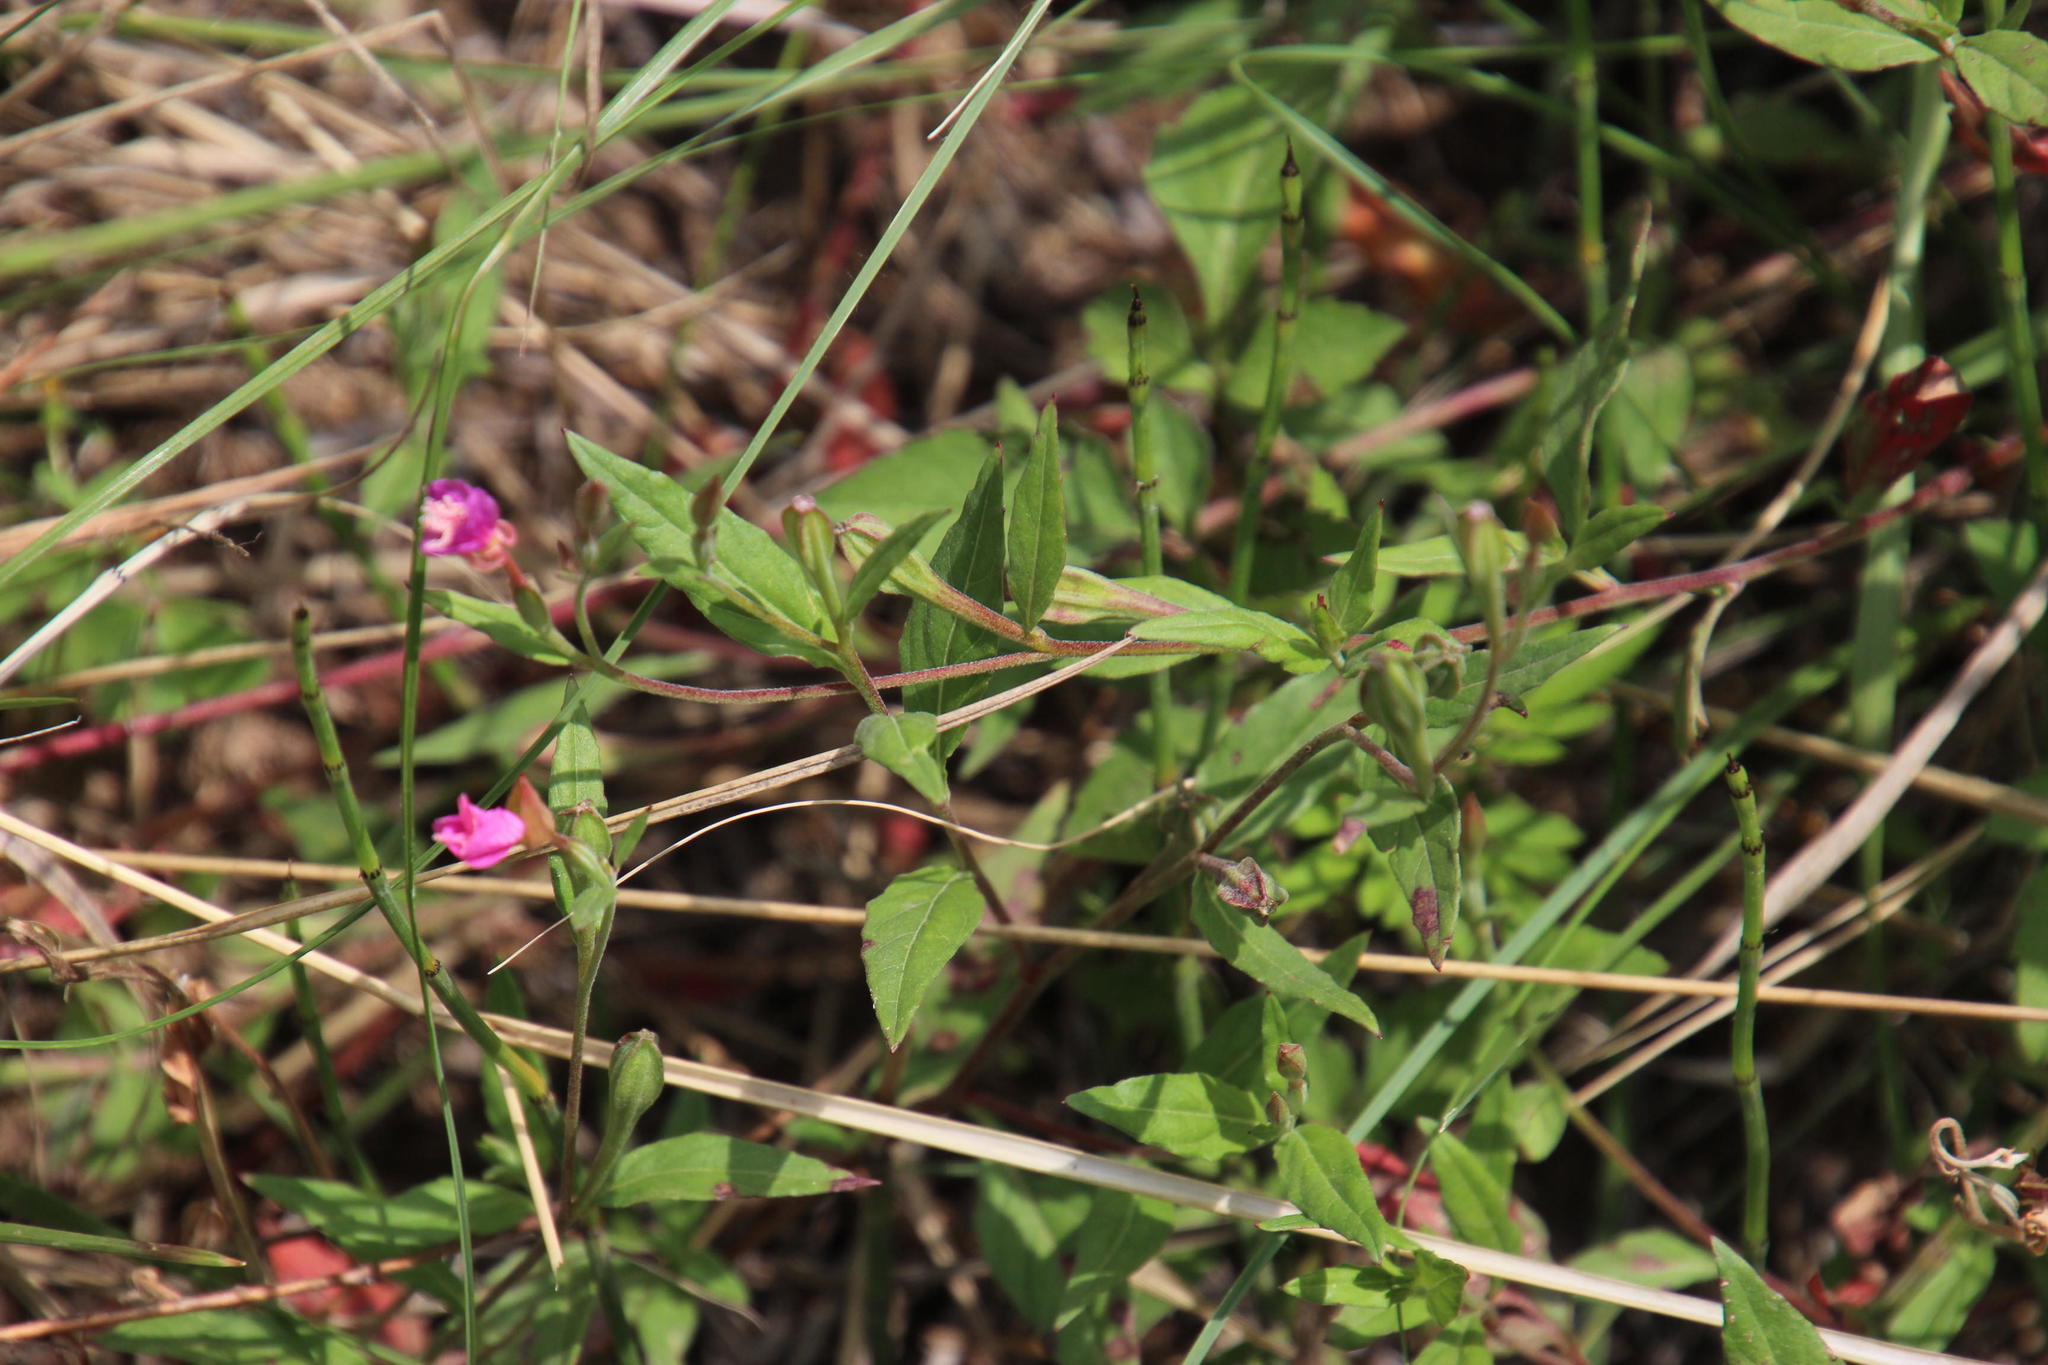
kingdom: Plantae
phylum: Tracheophyta
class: Magnoliopsida
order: Myrtales
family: Onagraceae
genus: Oenothera
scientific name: Oenothera rosea
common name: Rosy evening-primrose
